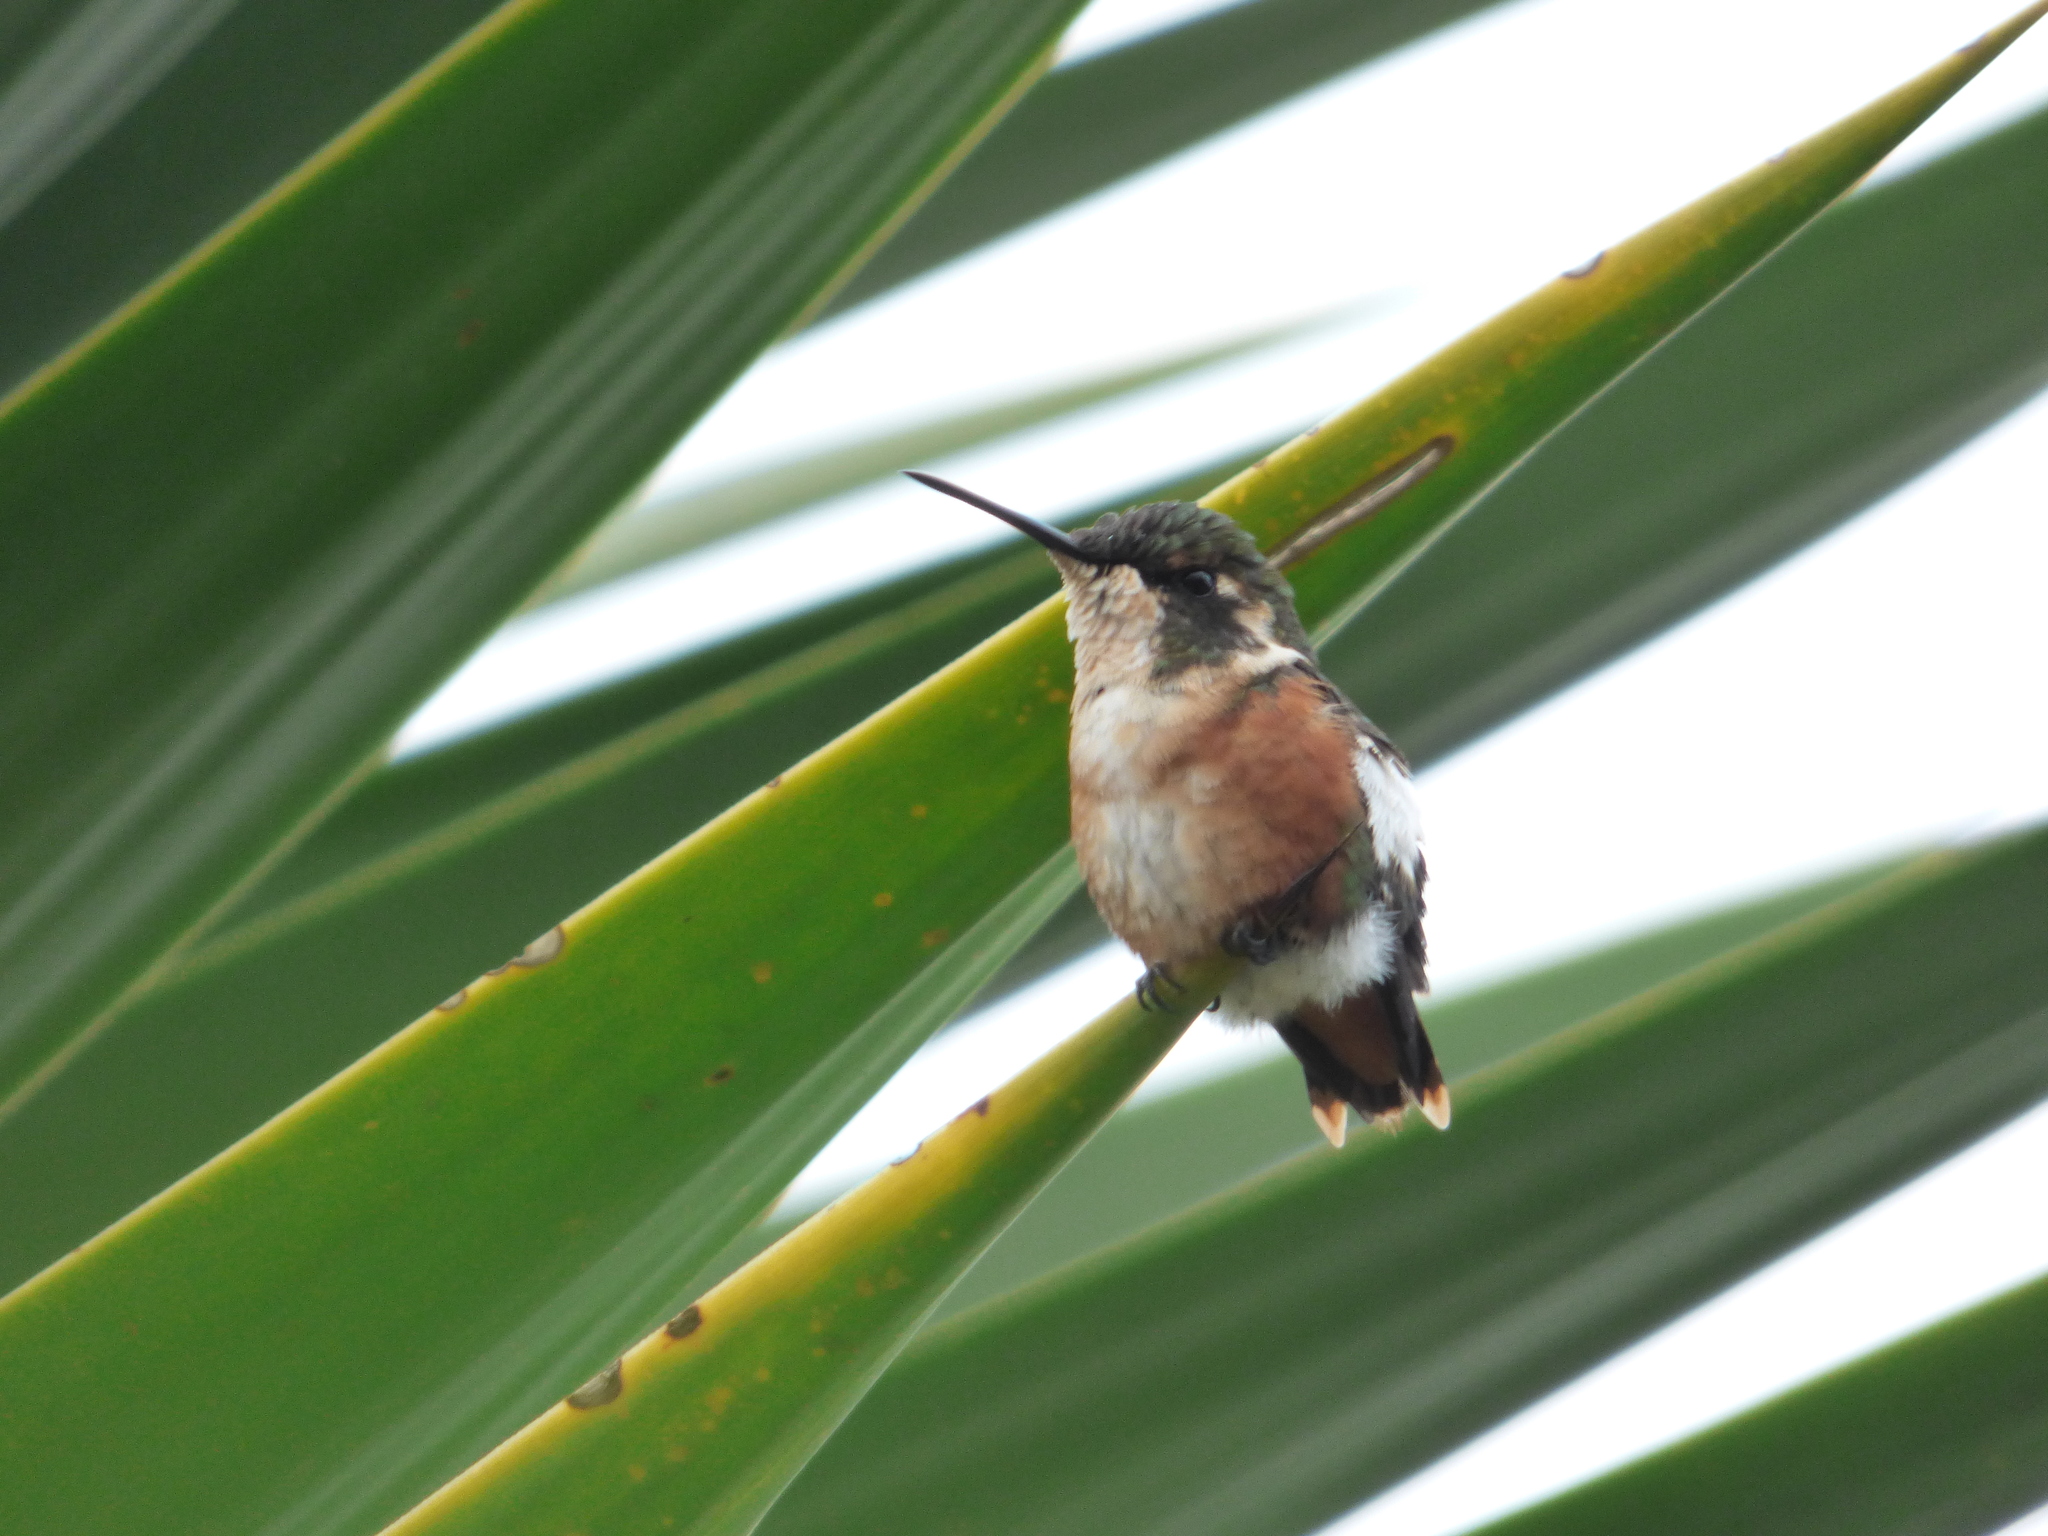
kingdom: Animalia
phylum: Chordata
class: Aves
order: Apodiformes
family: Trochilidae
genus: Chaetocercus
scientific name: Chaetocercus mulsant
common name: White-bellied woodstar
